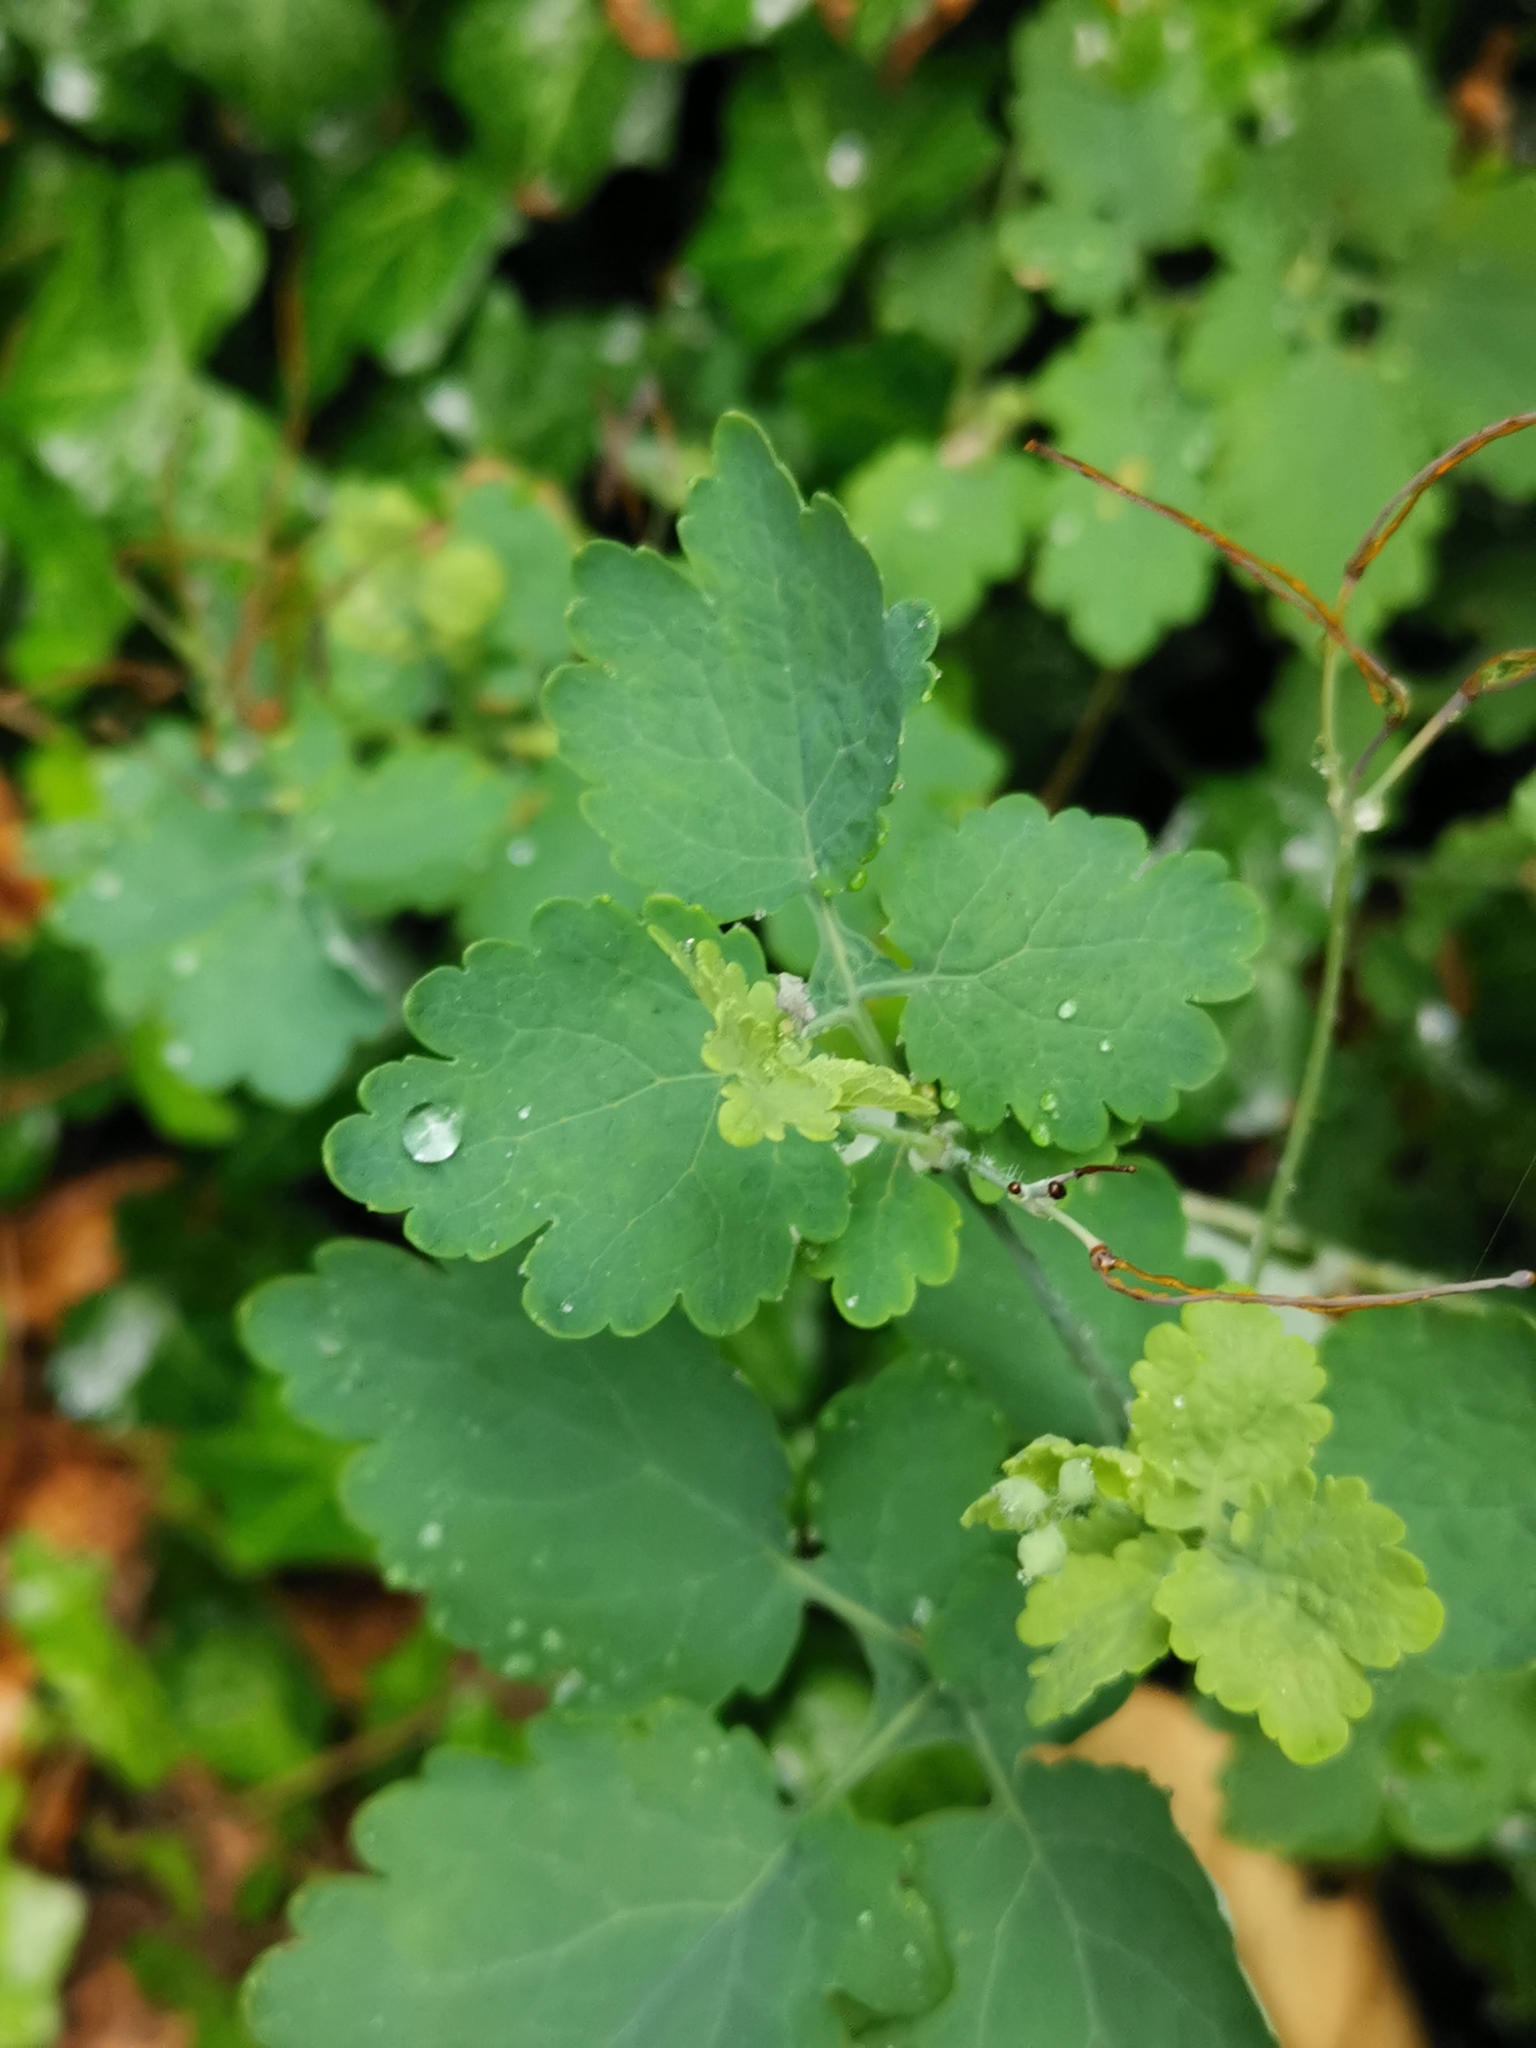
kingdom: Plantae
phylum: Tracheophyta
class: Magnoliopsida
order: Ranunculales
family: Papaveraceae
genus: Chelidonium
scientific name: Chelidonium majus
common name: Greater celandine
